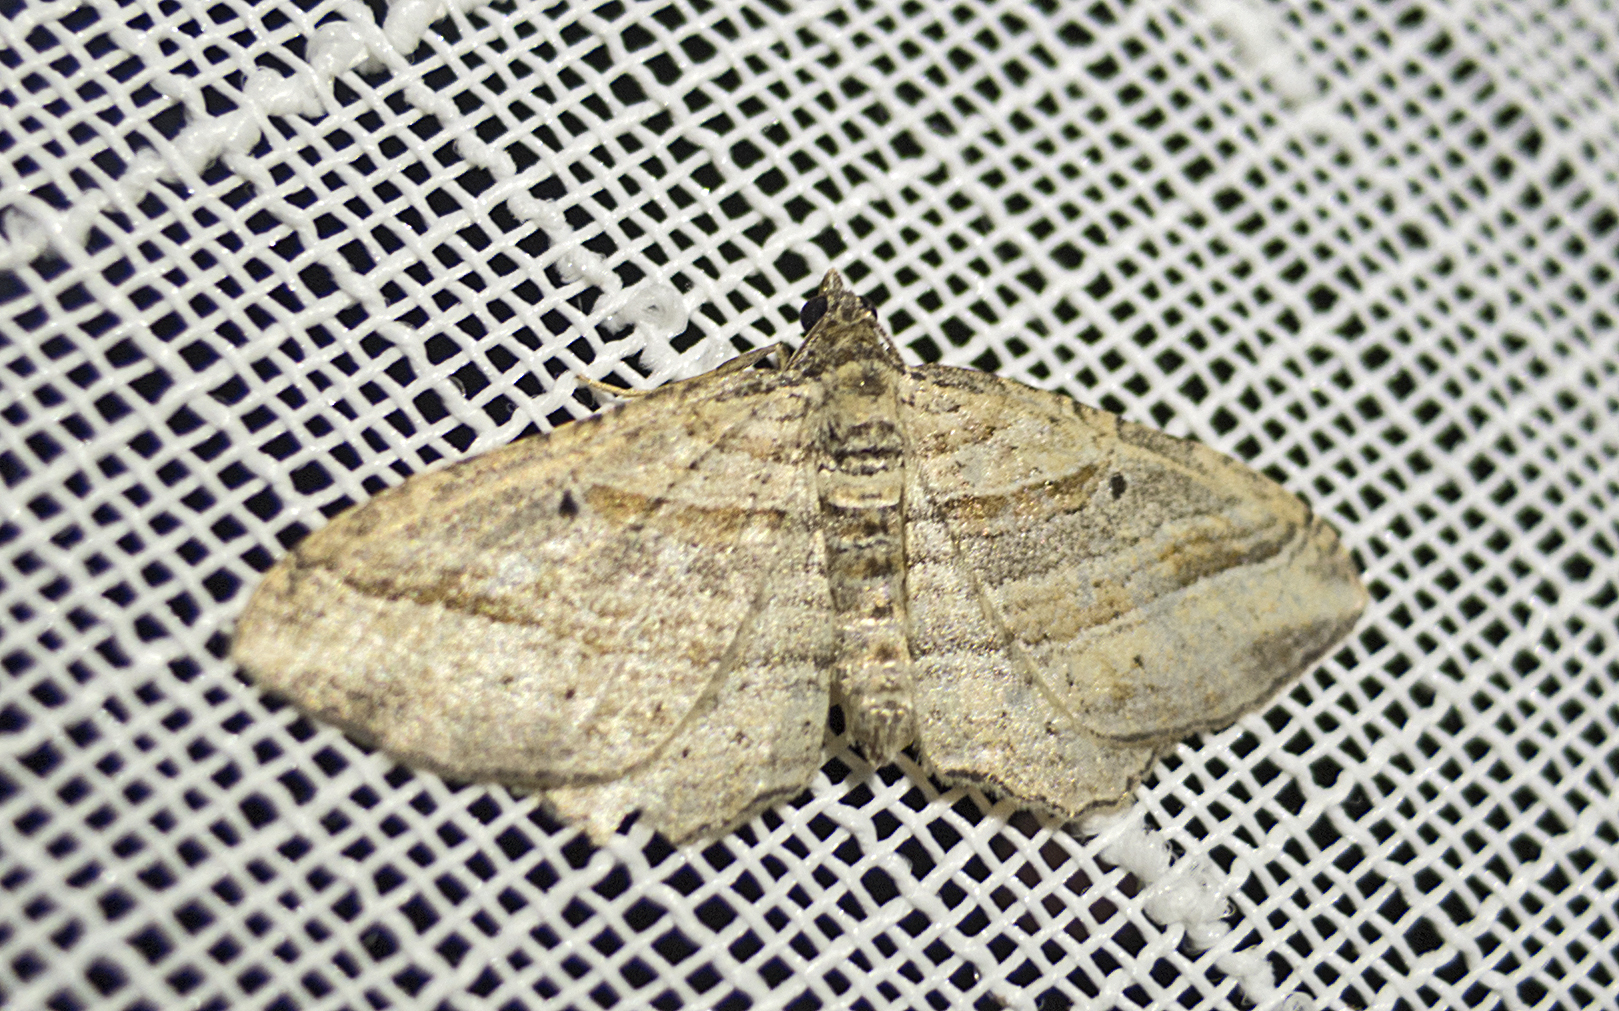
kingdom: Animalia
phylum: Arthropoda
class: Insecta
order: Lepidoptera
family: Geometridae
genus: Costaconvexa
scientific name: Costaconvexa polygrammata
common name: Many-lined
